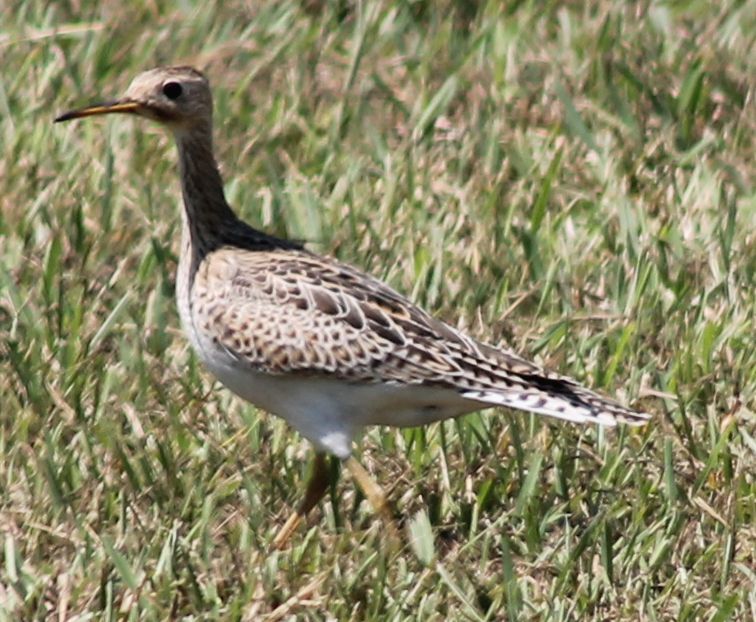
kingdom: Animalia
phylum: Chordata
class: Aves
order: Charadriiformes
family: Scolopacidae
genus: Bartramia
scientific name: Bartramia longicauda
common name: Upland sandpiper
